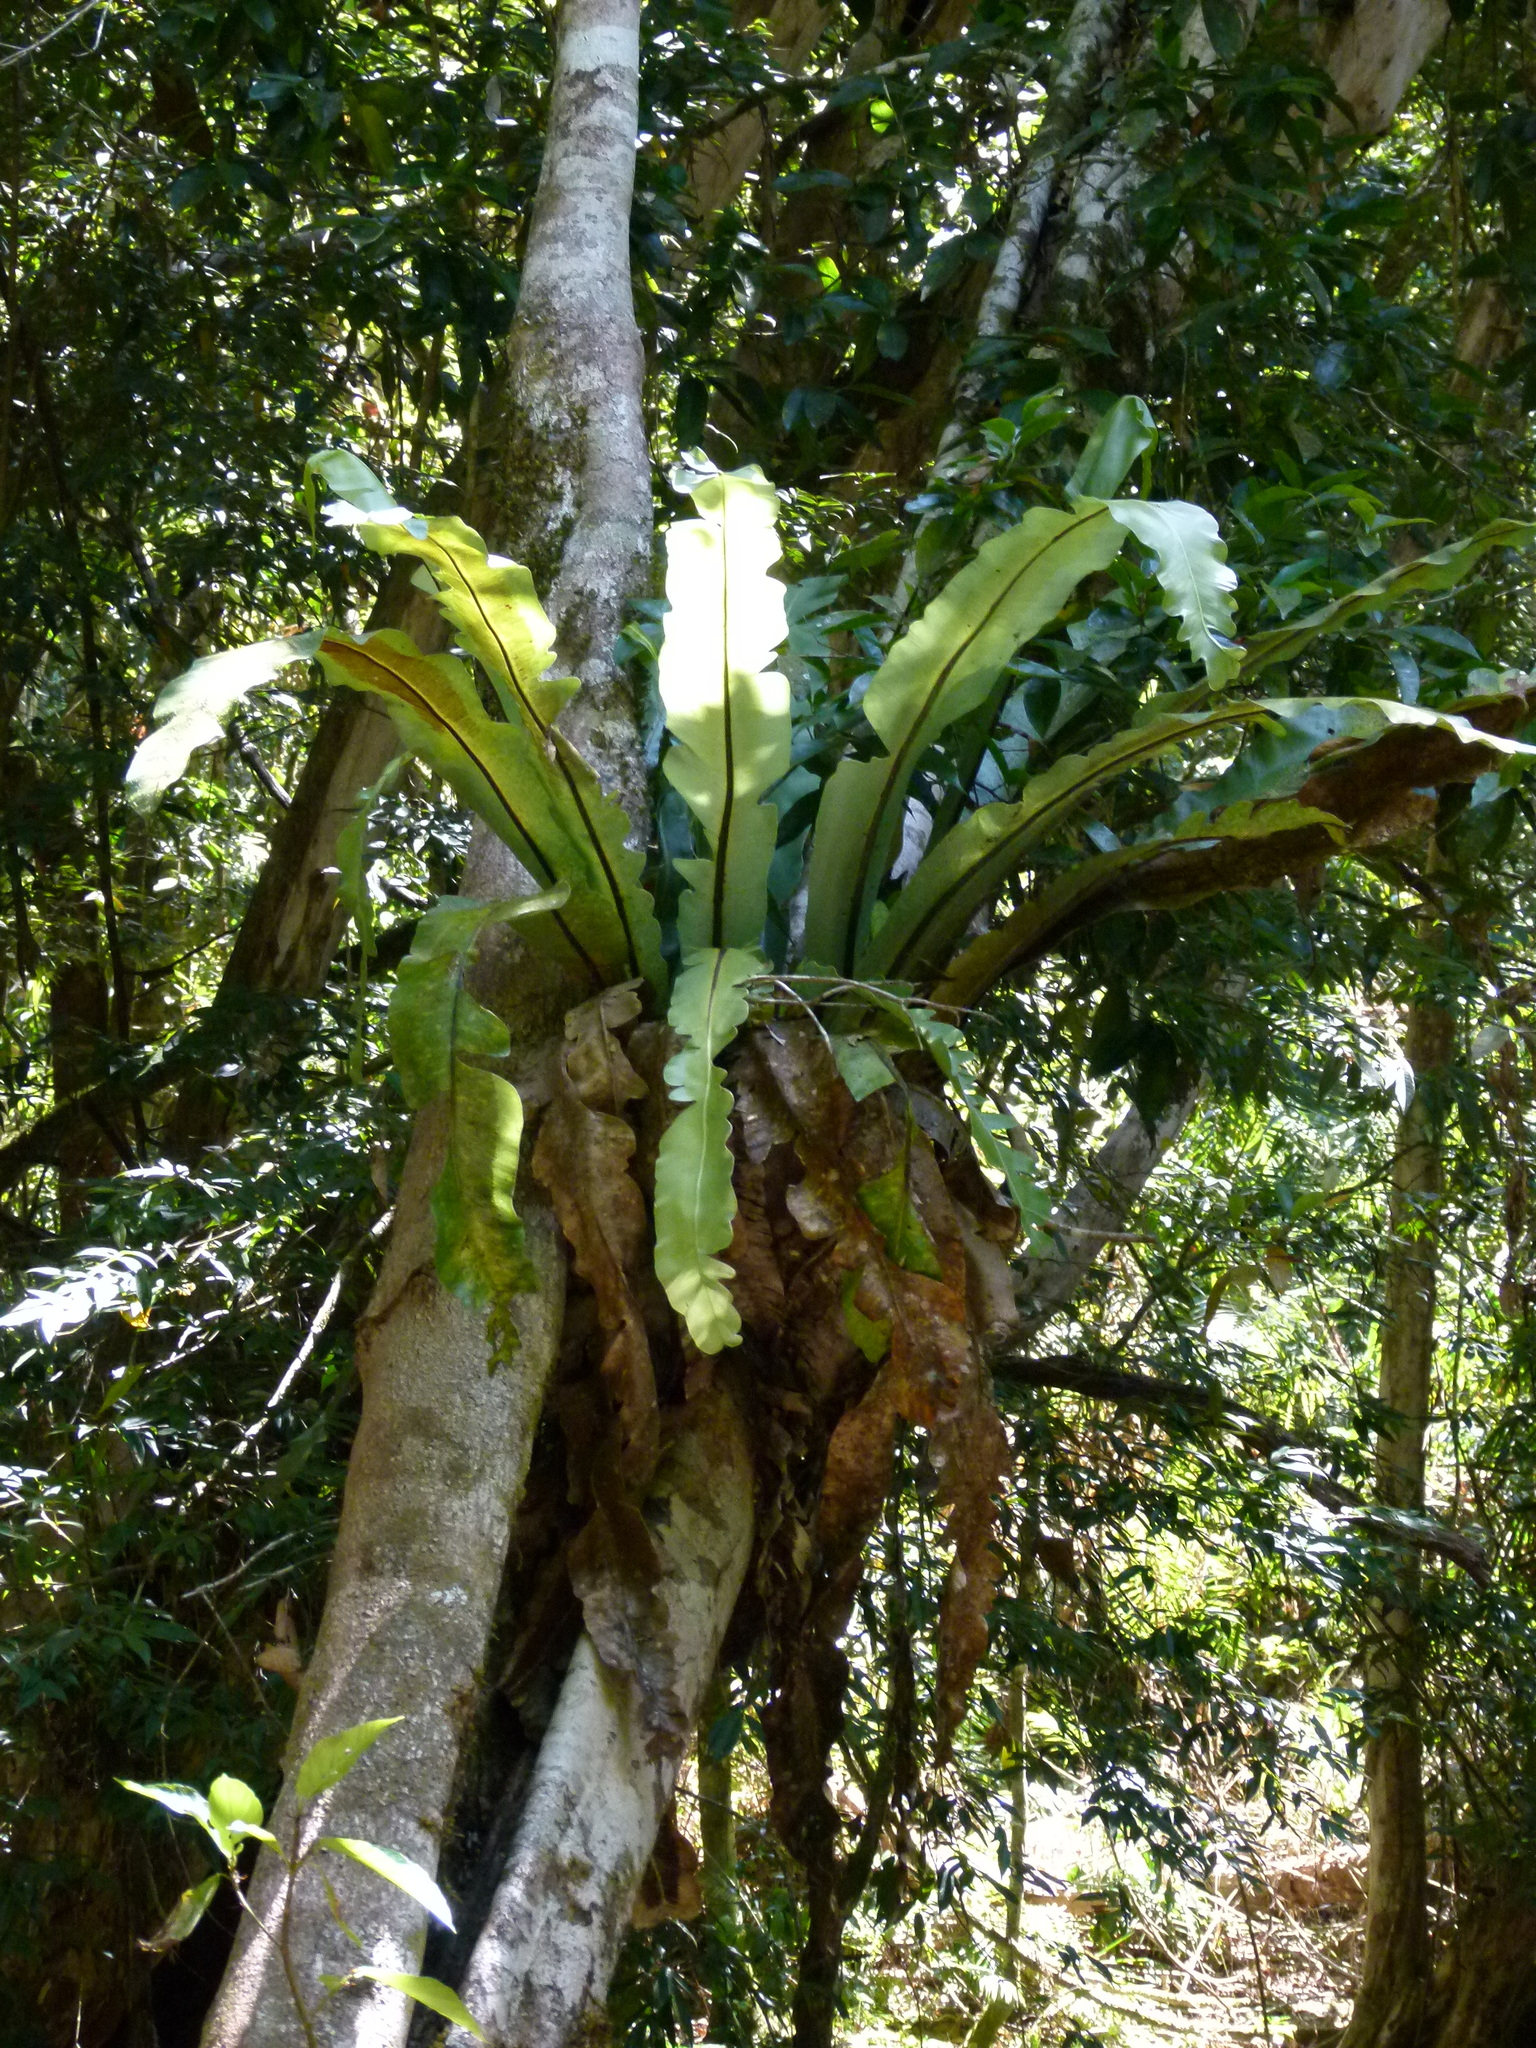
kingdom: Plantae
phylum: Tracheophyta
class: Polypodiopsida
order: Polypodiales
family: Aspleniaceae
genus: Asplenium
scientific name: Asplenium australasicum
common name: Bird's-nest fern
